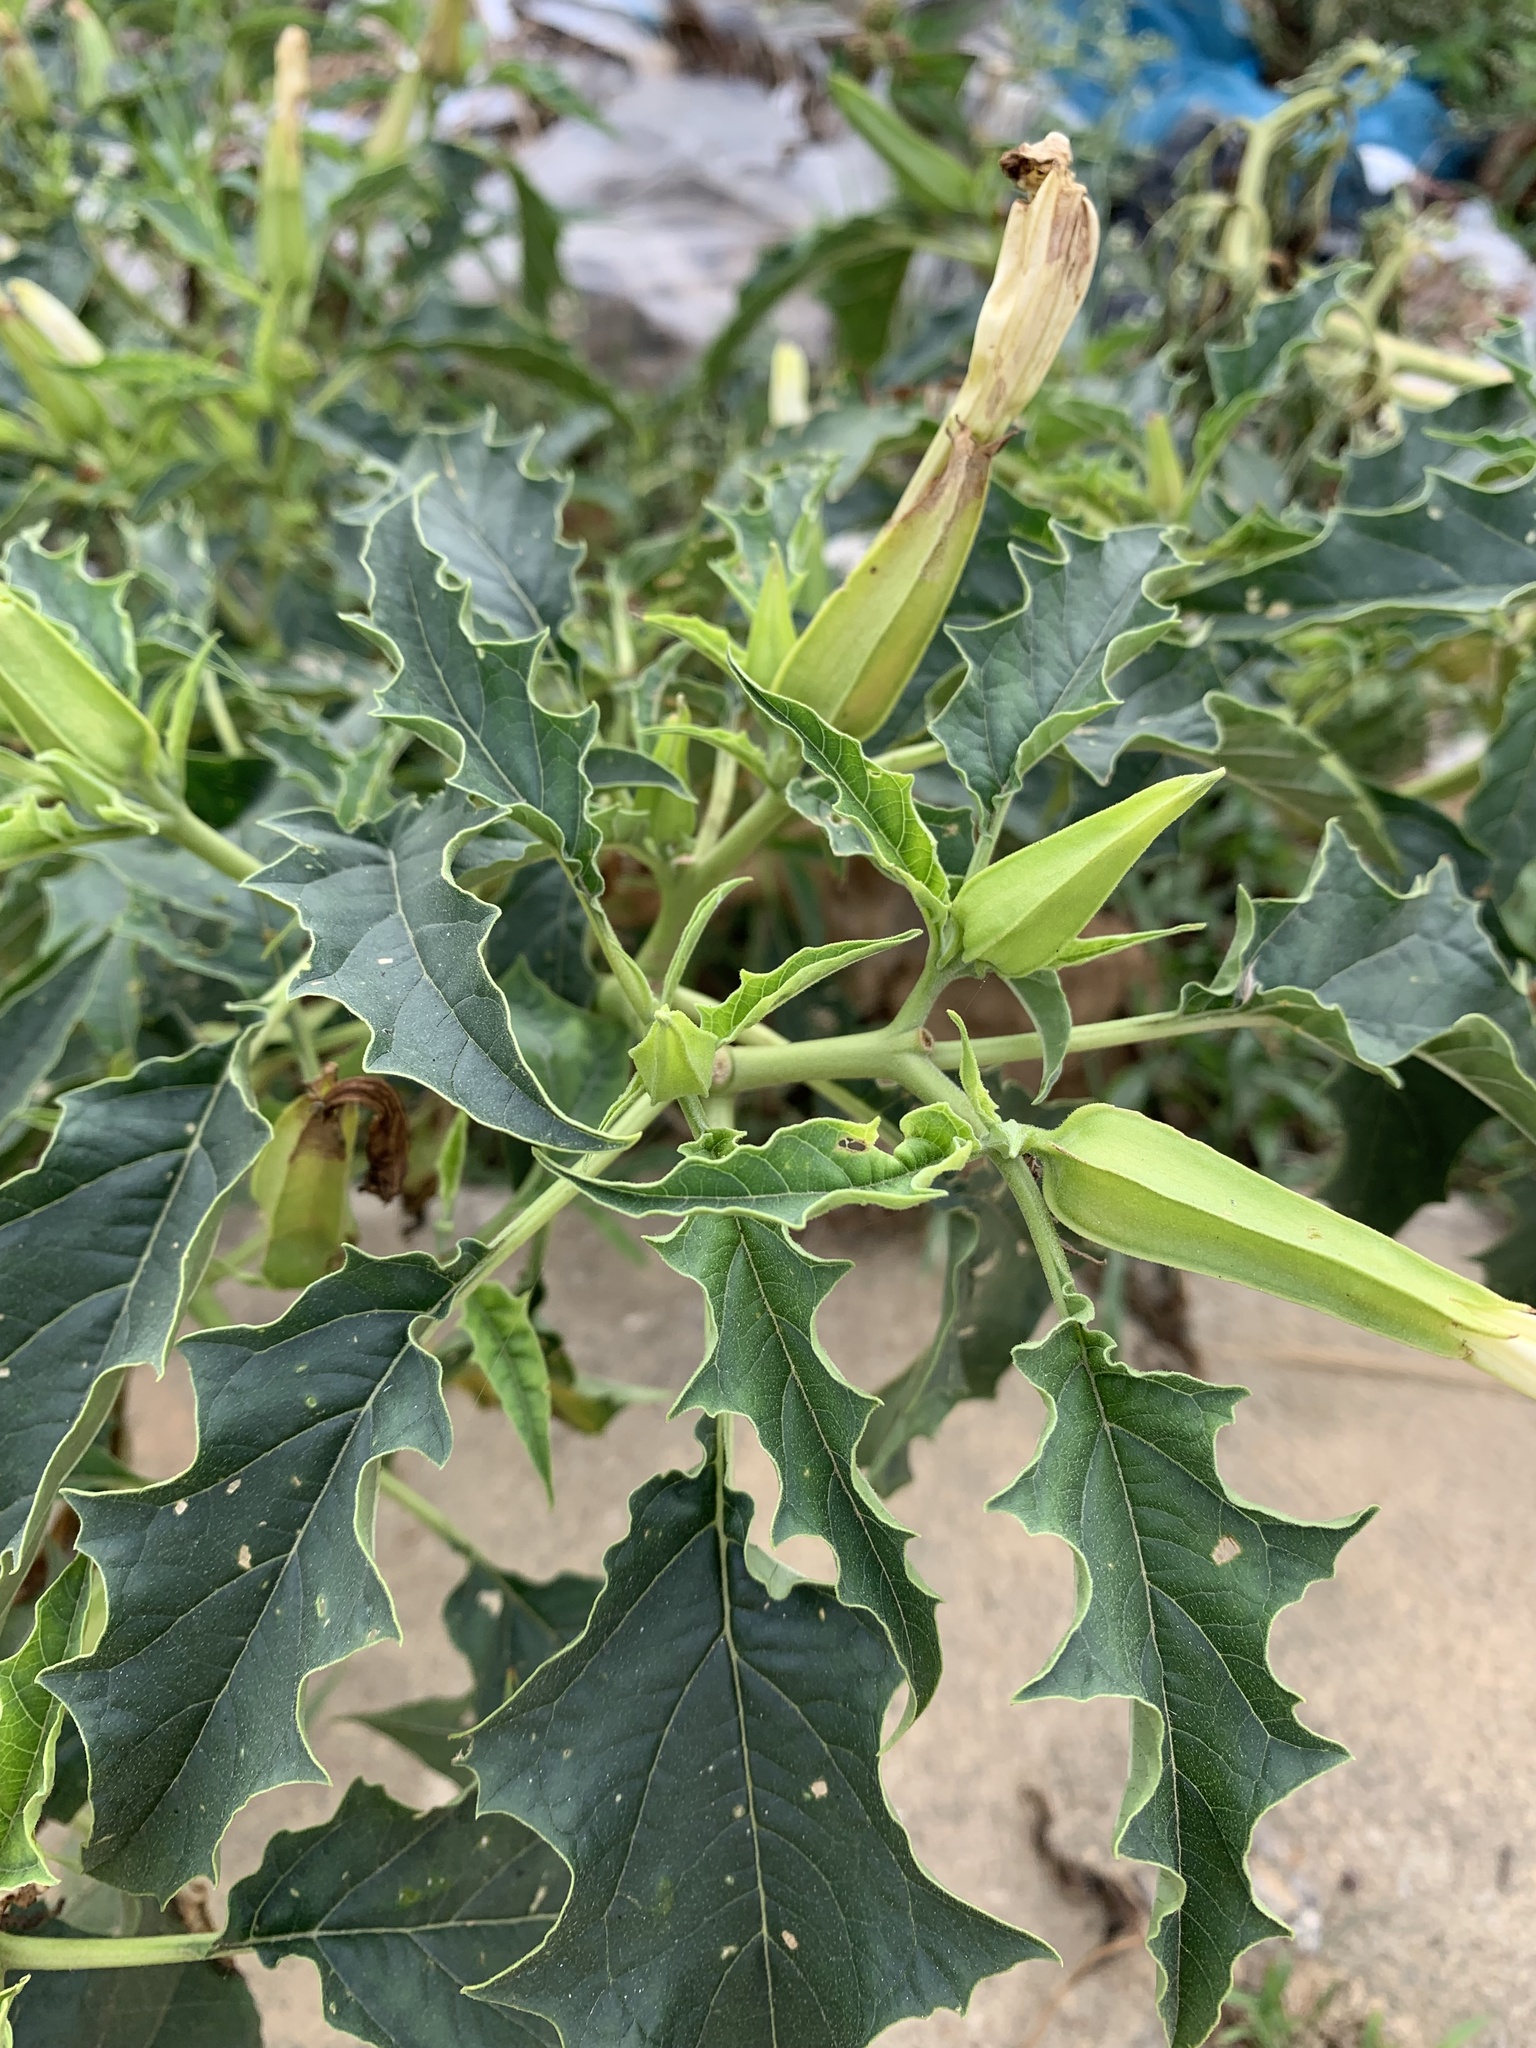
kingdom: Plantae
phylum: Tracheophyta
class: Magnoliopsida
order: Solanales
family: Solanaceae
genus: Datura
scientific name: Datura stramonium
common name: Thorn-apple
